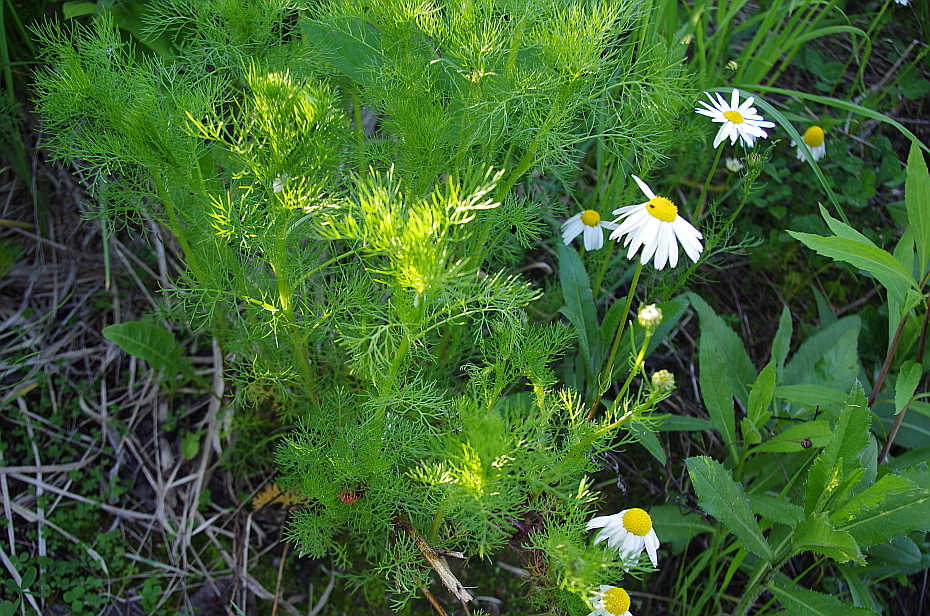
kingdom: Plantae
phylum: Tracheophyta
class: Magnoliopsida
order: Asterales
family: Asteraceae
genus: Tripleurospermum
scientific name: Tripleurospermum inodorum
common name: Scentless mayweed
